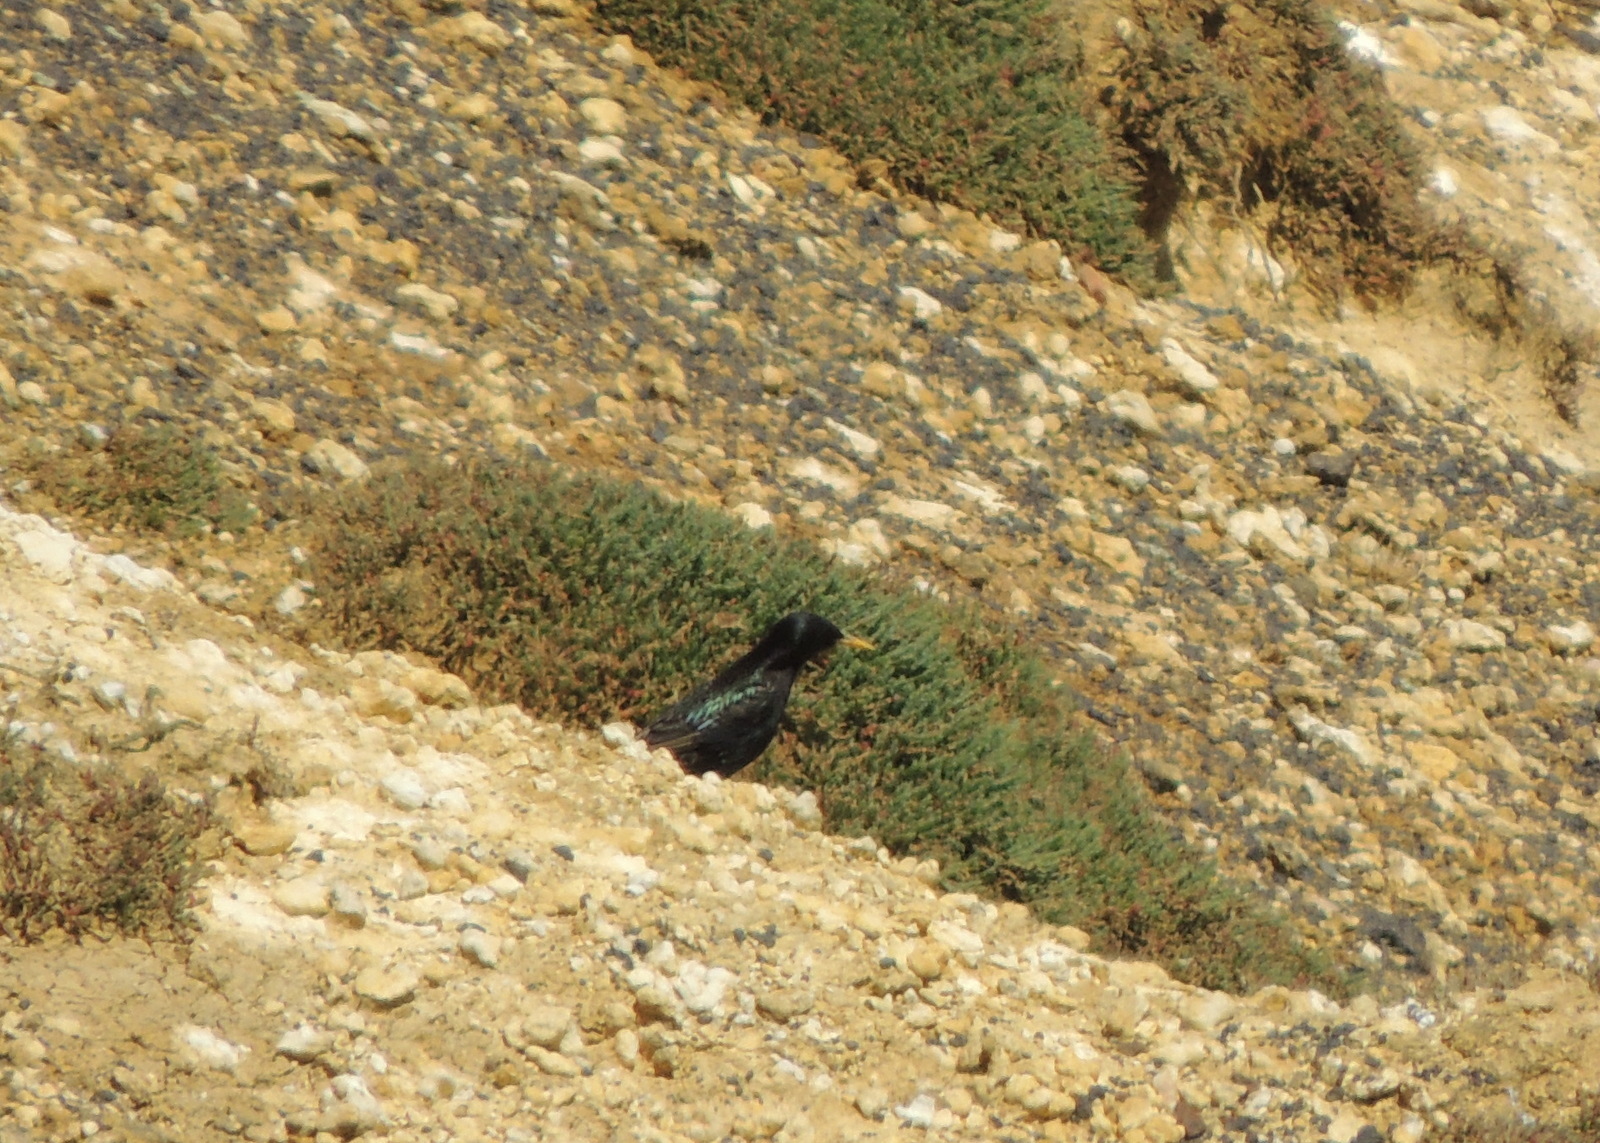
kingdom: Animalia
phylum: Chordata
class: Aves
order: Passeriformes
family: Sturnidae
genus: Sturnus
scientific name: Sturnus vulgaris
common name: Common starling
